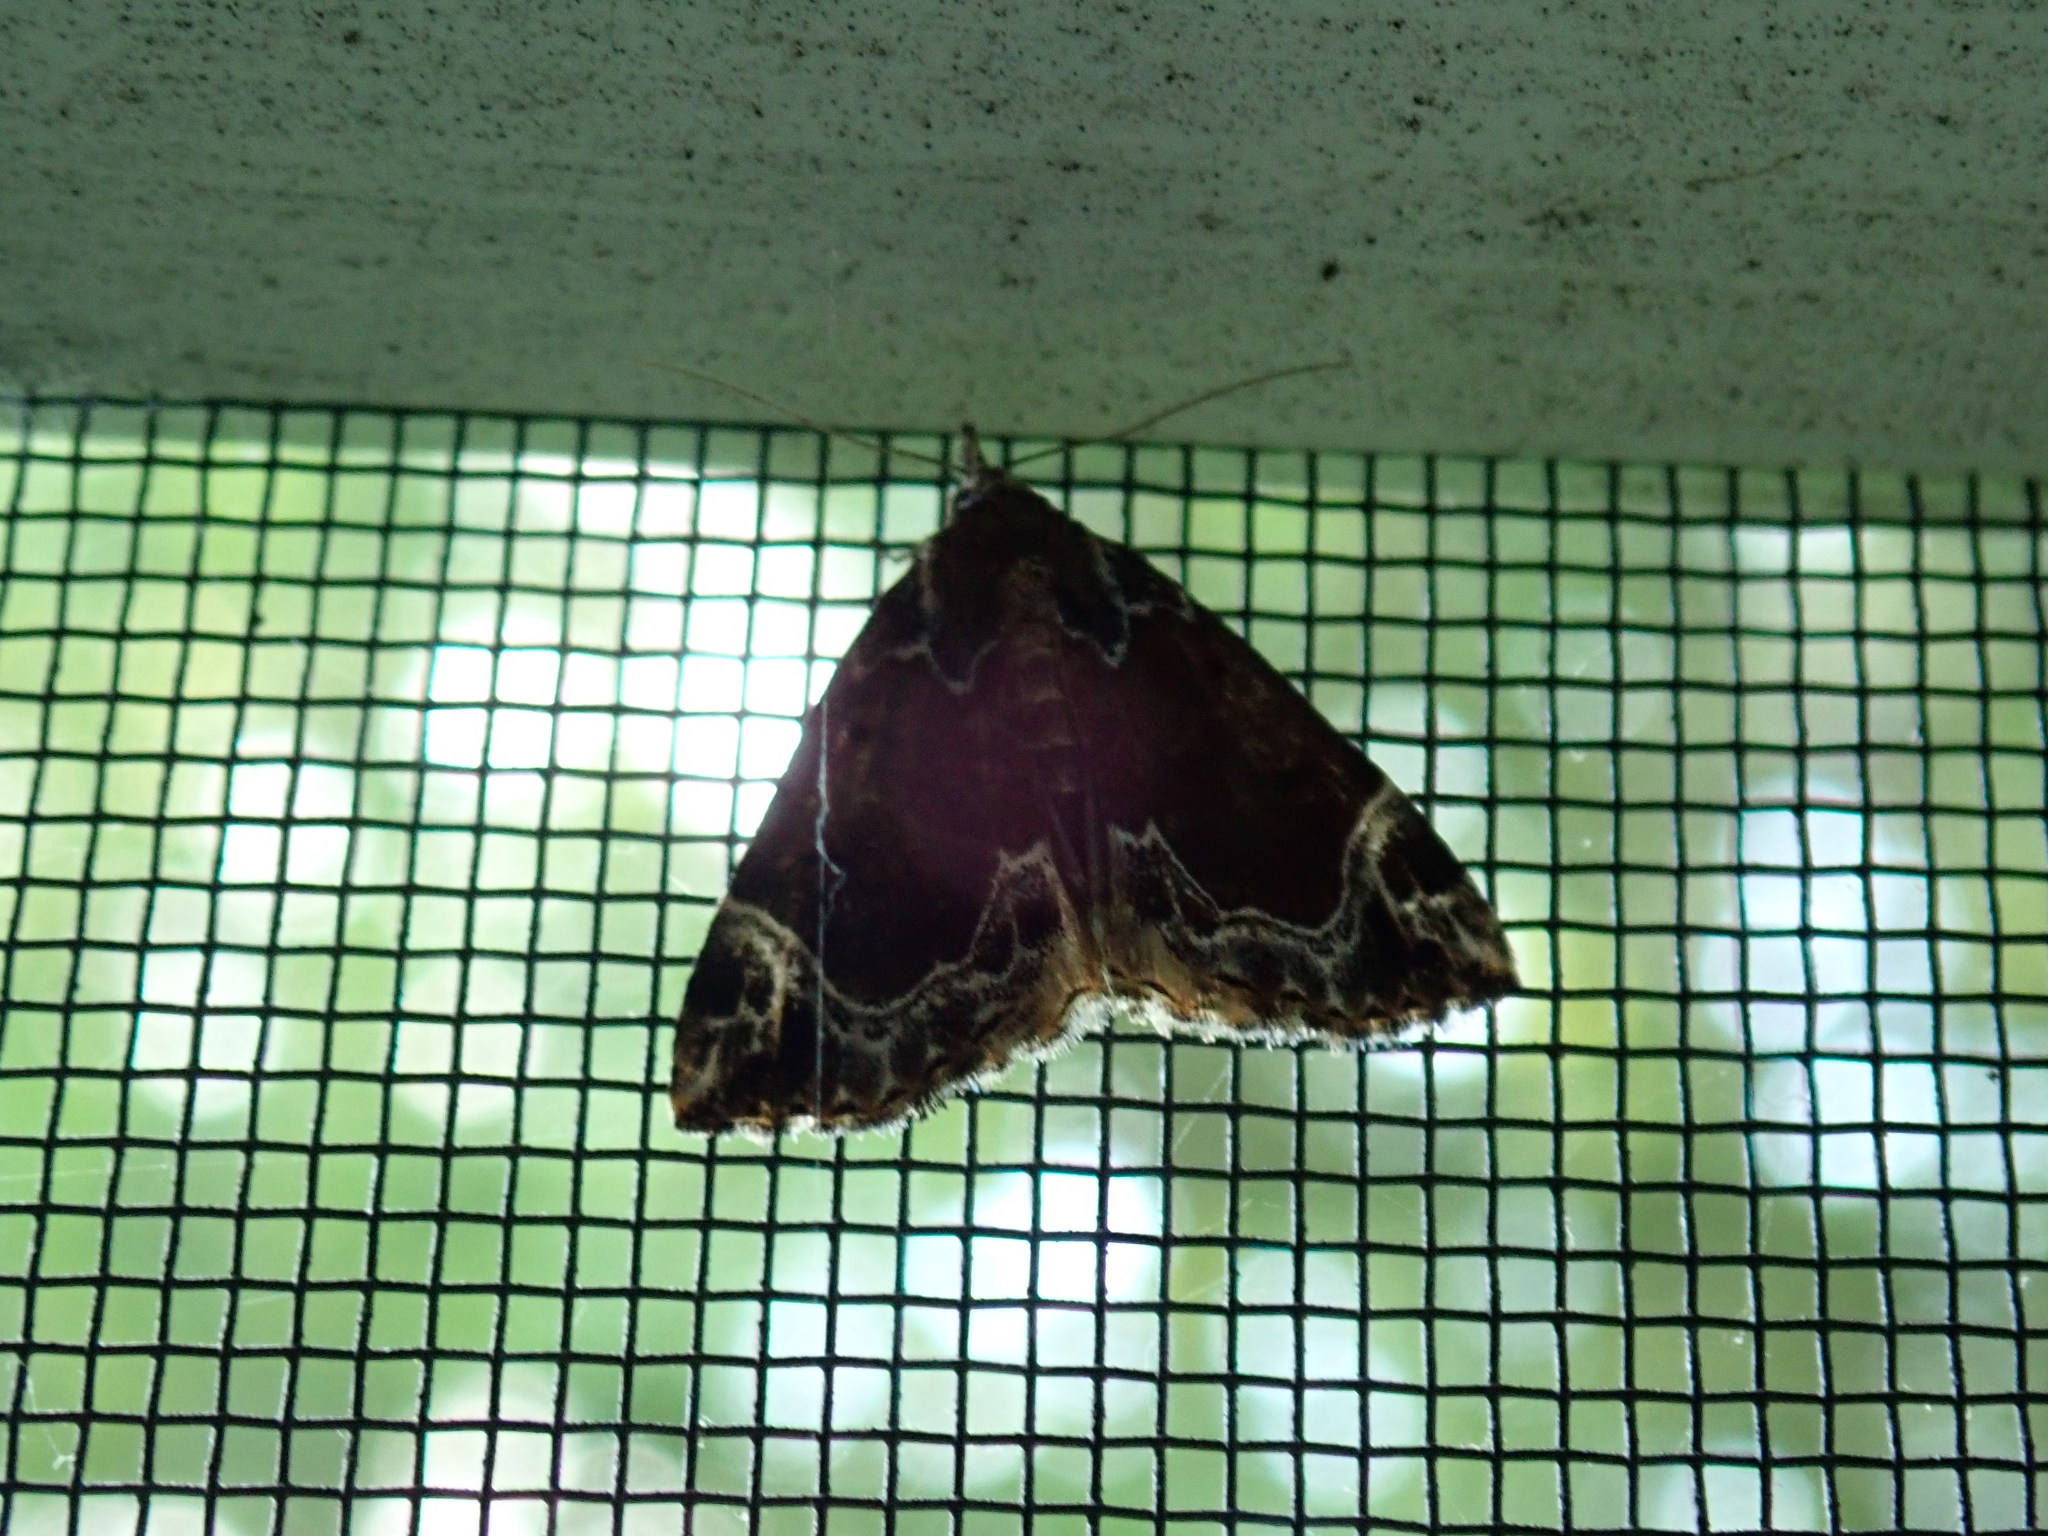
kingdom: Animalia
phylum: Arthropoda
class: Insecta
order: Lepidoptera
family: Erebidae
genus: Hypena
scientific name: Hypena abalienalis
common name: White-lined snout
